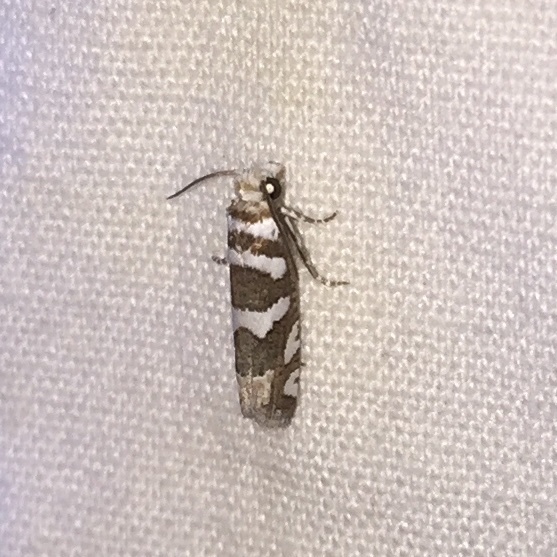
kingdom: Animalia
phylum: Arthropoda
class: Insecta
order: Lepidoptera
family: Tortricidae
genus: Pelochrista
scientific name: Pelochrista robinsonana
